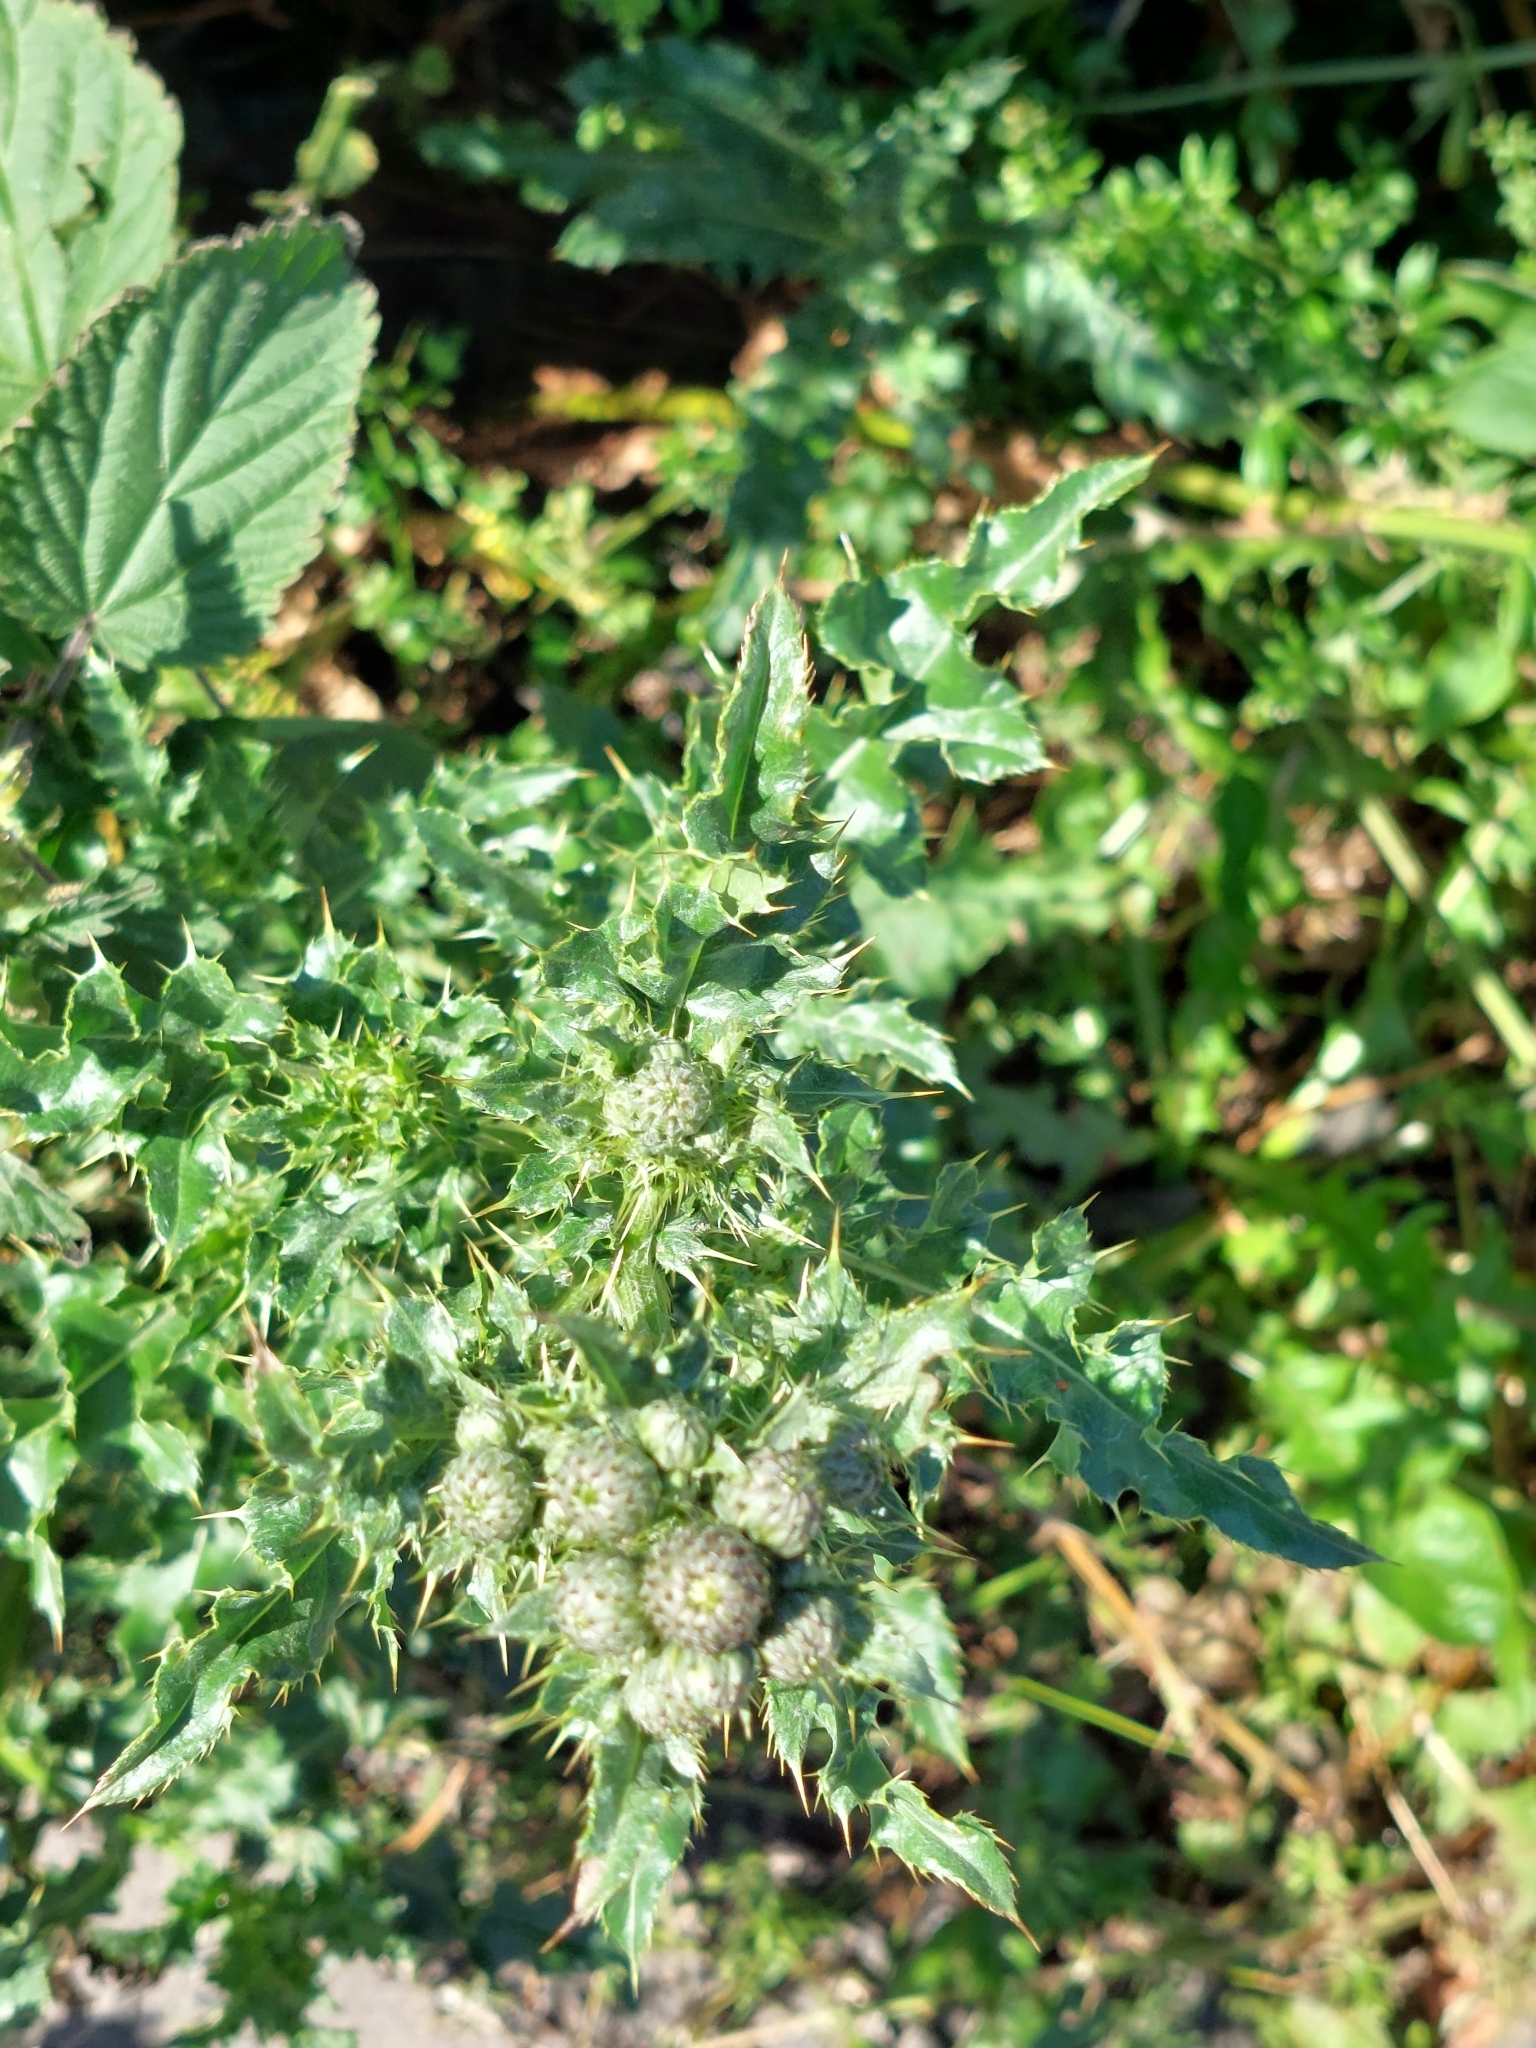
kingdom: Plantae
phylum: Tracheophyta
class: Magnoliopsida
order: Asterales
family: Asteraceae
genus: Cirsium
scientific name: Cirsium arvense
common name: Creeping thistle
